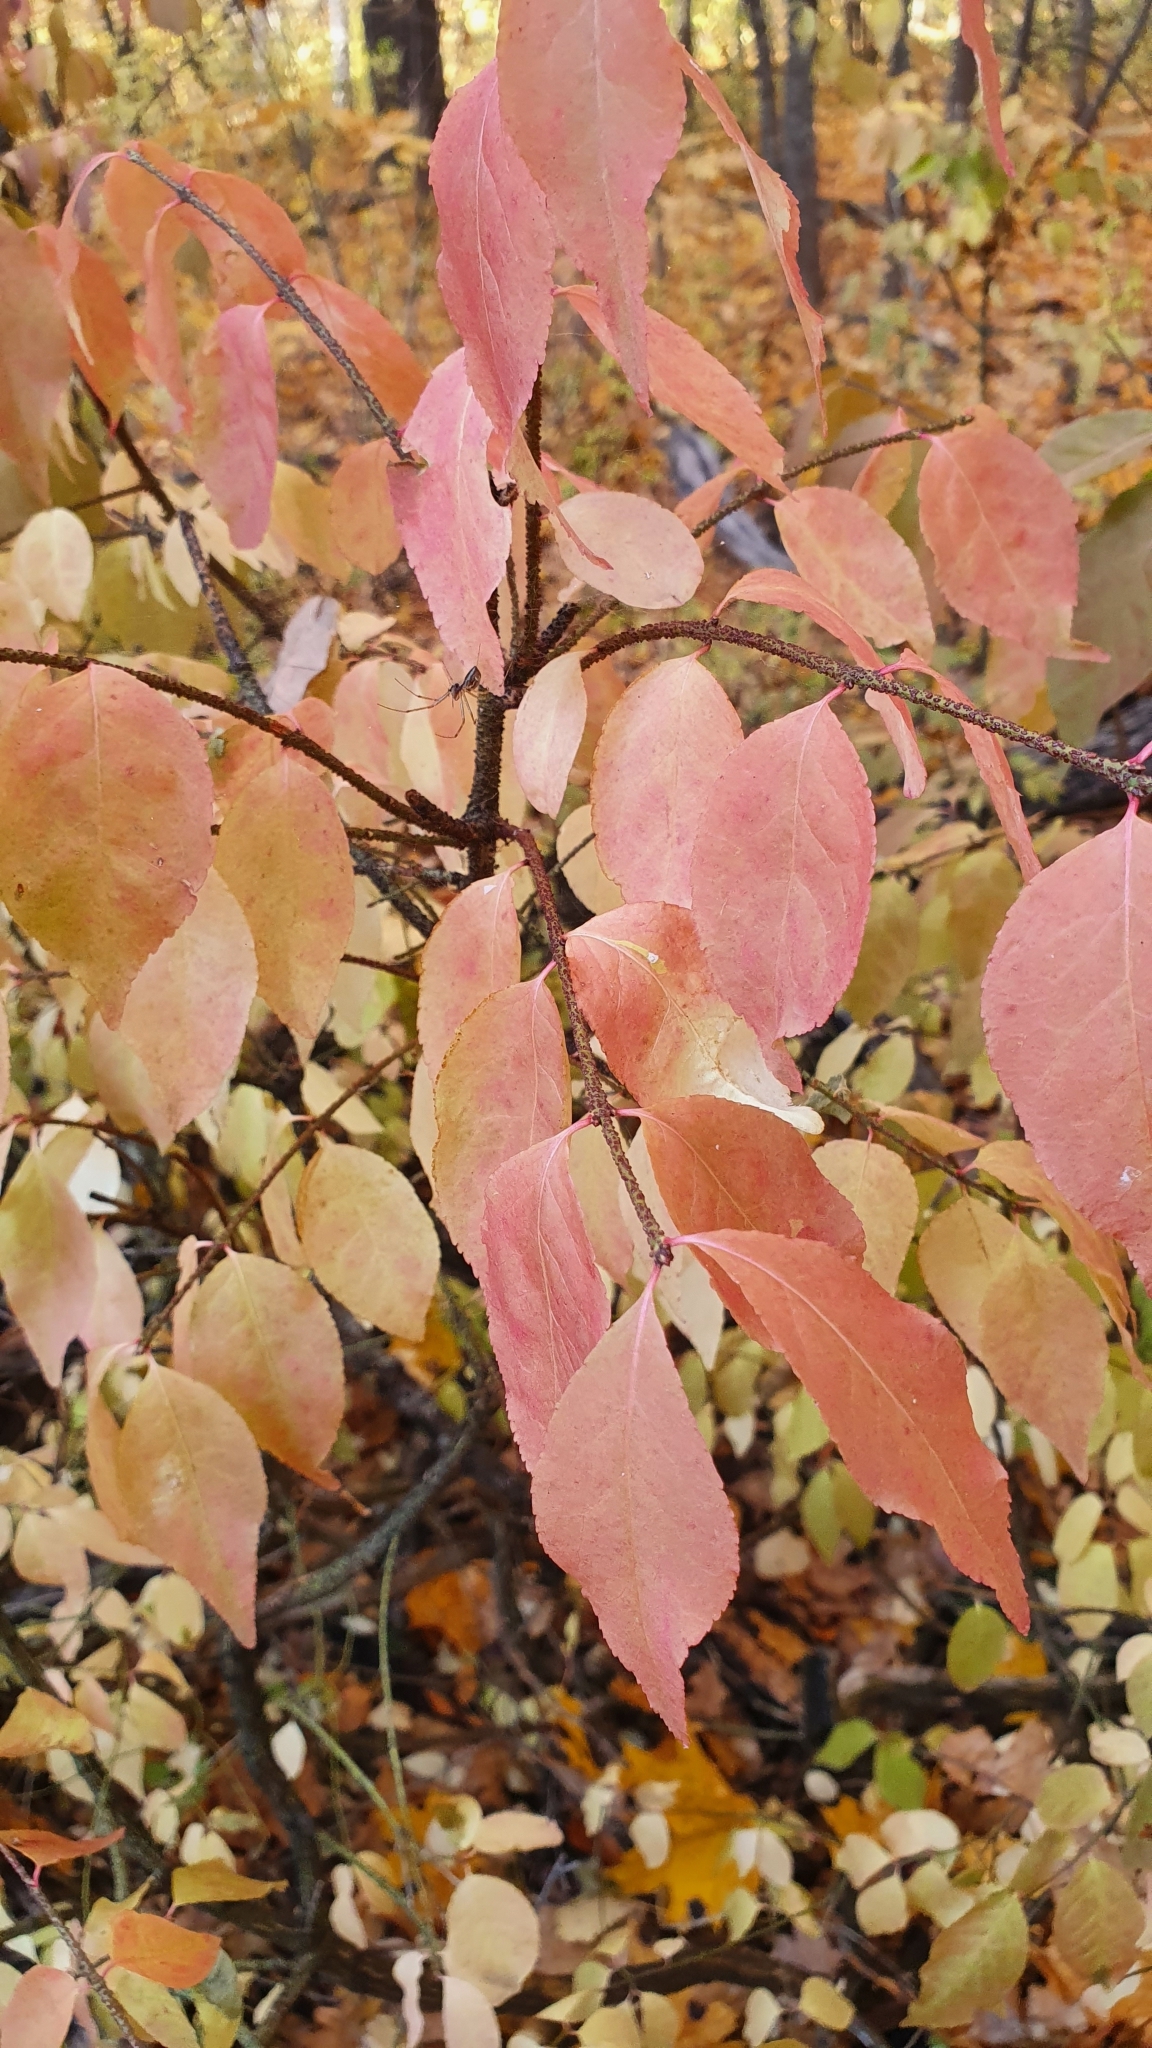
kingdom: Plantae
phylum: Tracheophyta
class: Magnoliopsida
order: Celastrales
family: Celastraceae
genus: Euonymus
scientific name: Euonymus verrucosus
